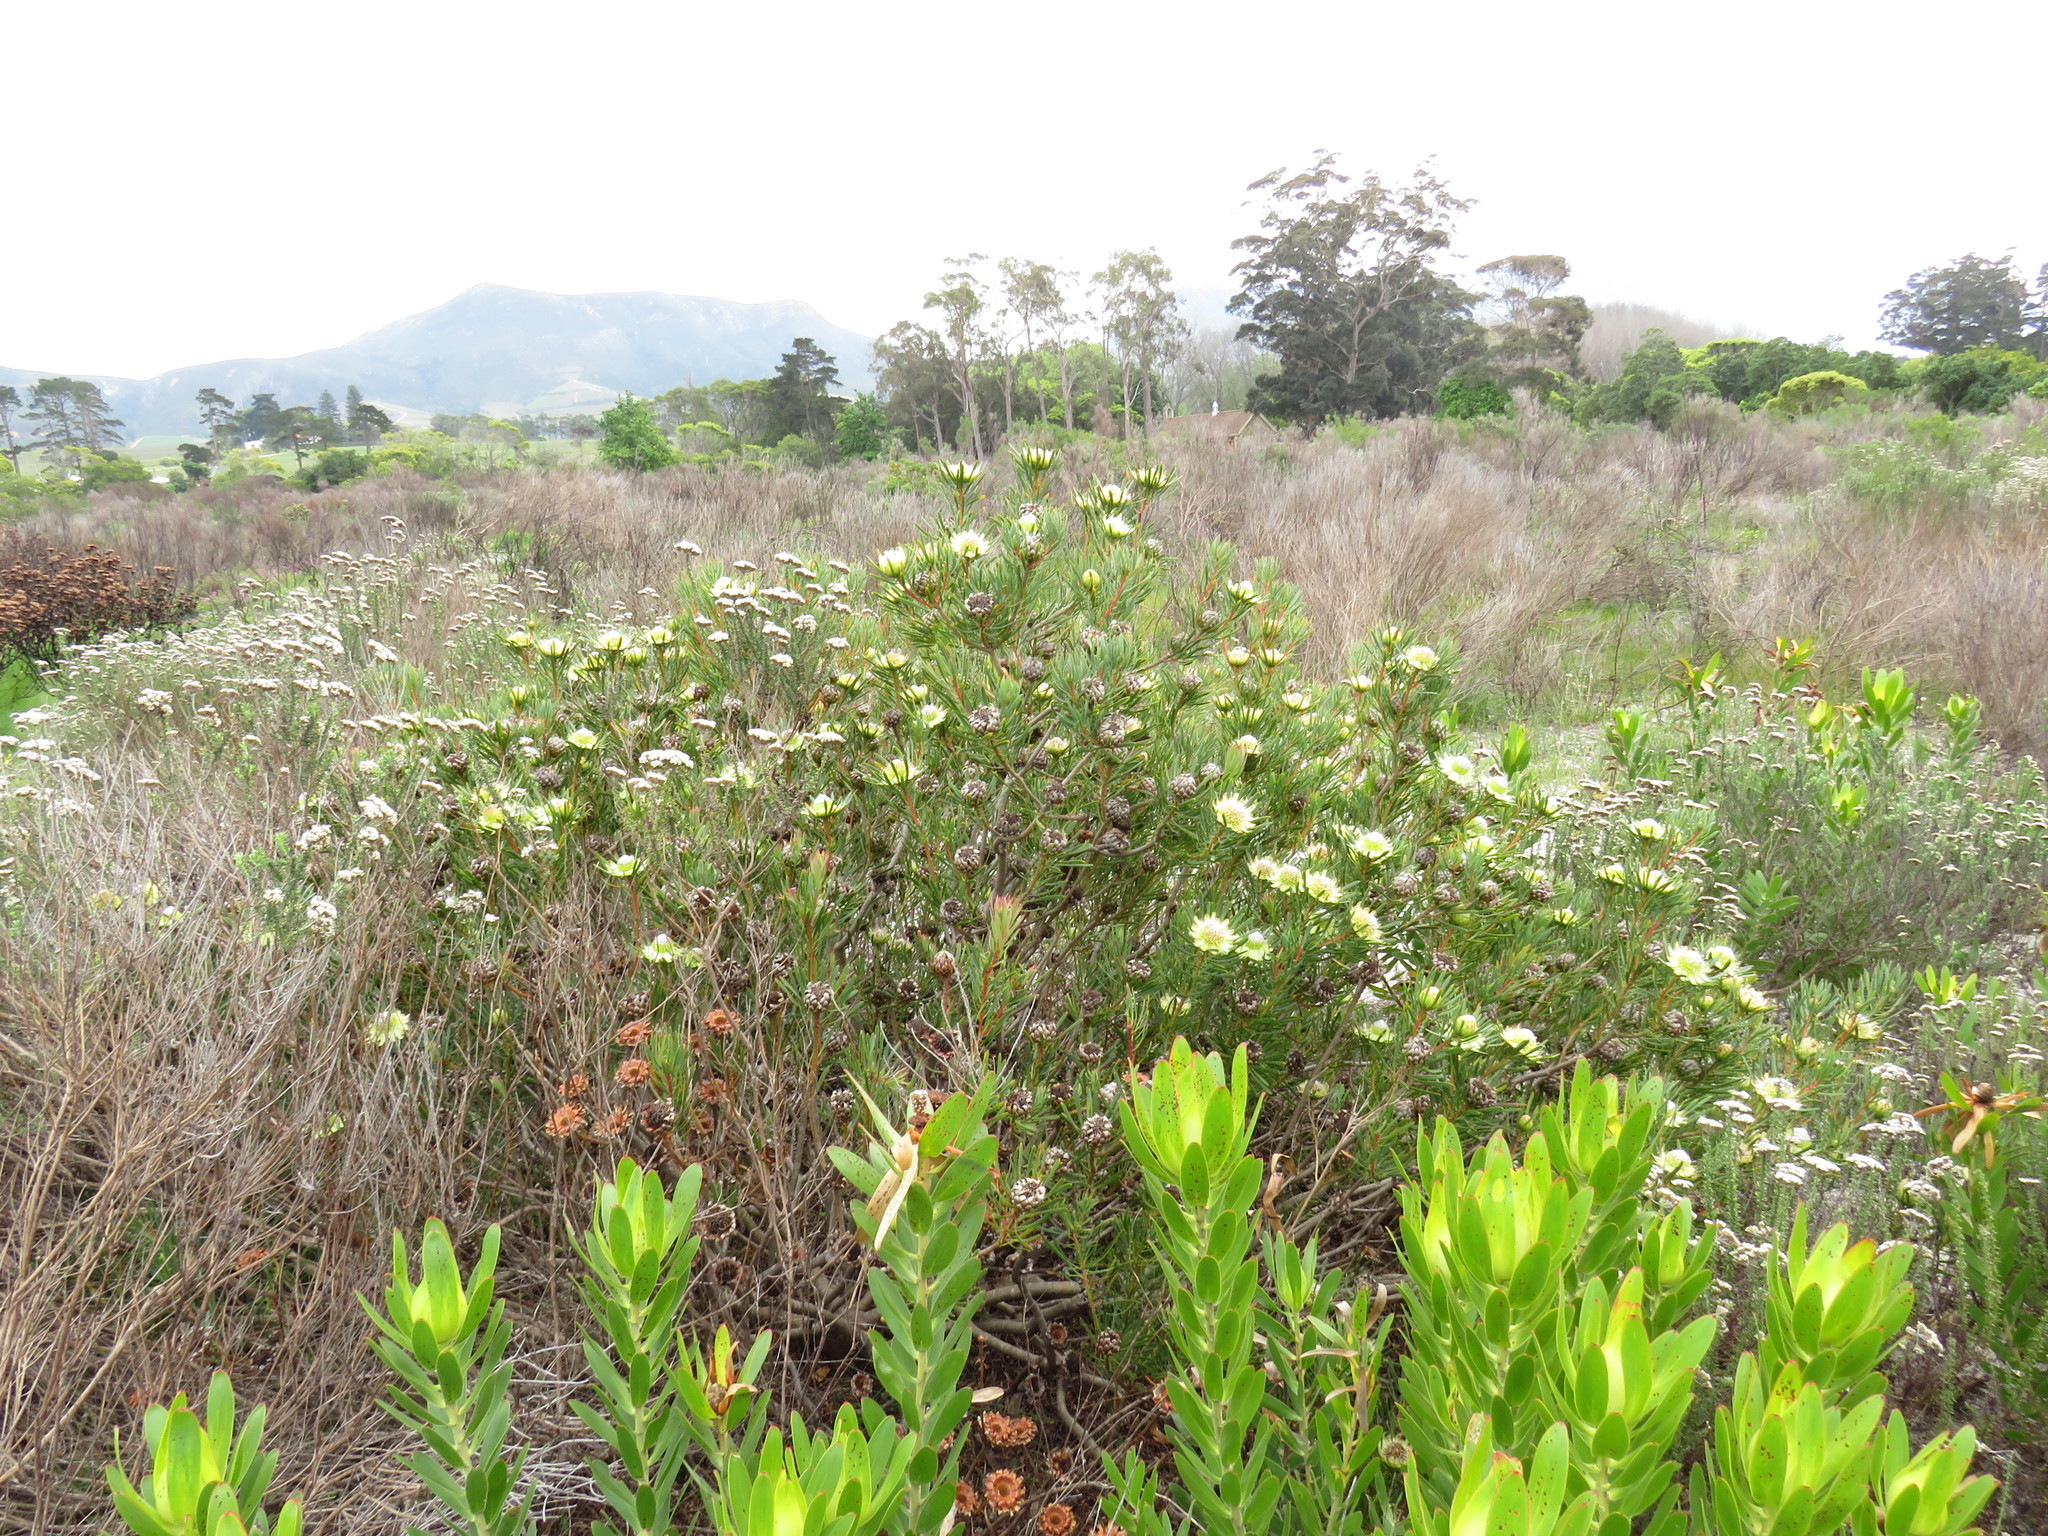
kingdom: Plantae
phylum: Tracheophyta
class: Magnoliopsida
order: Proteales
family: Proteaceae
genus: Protea
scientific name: Protea scolymocephala
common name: Thistle sugarbush
